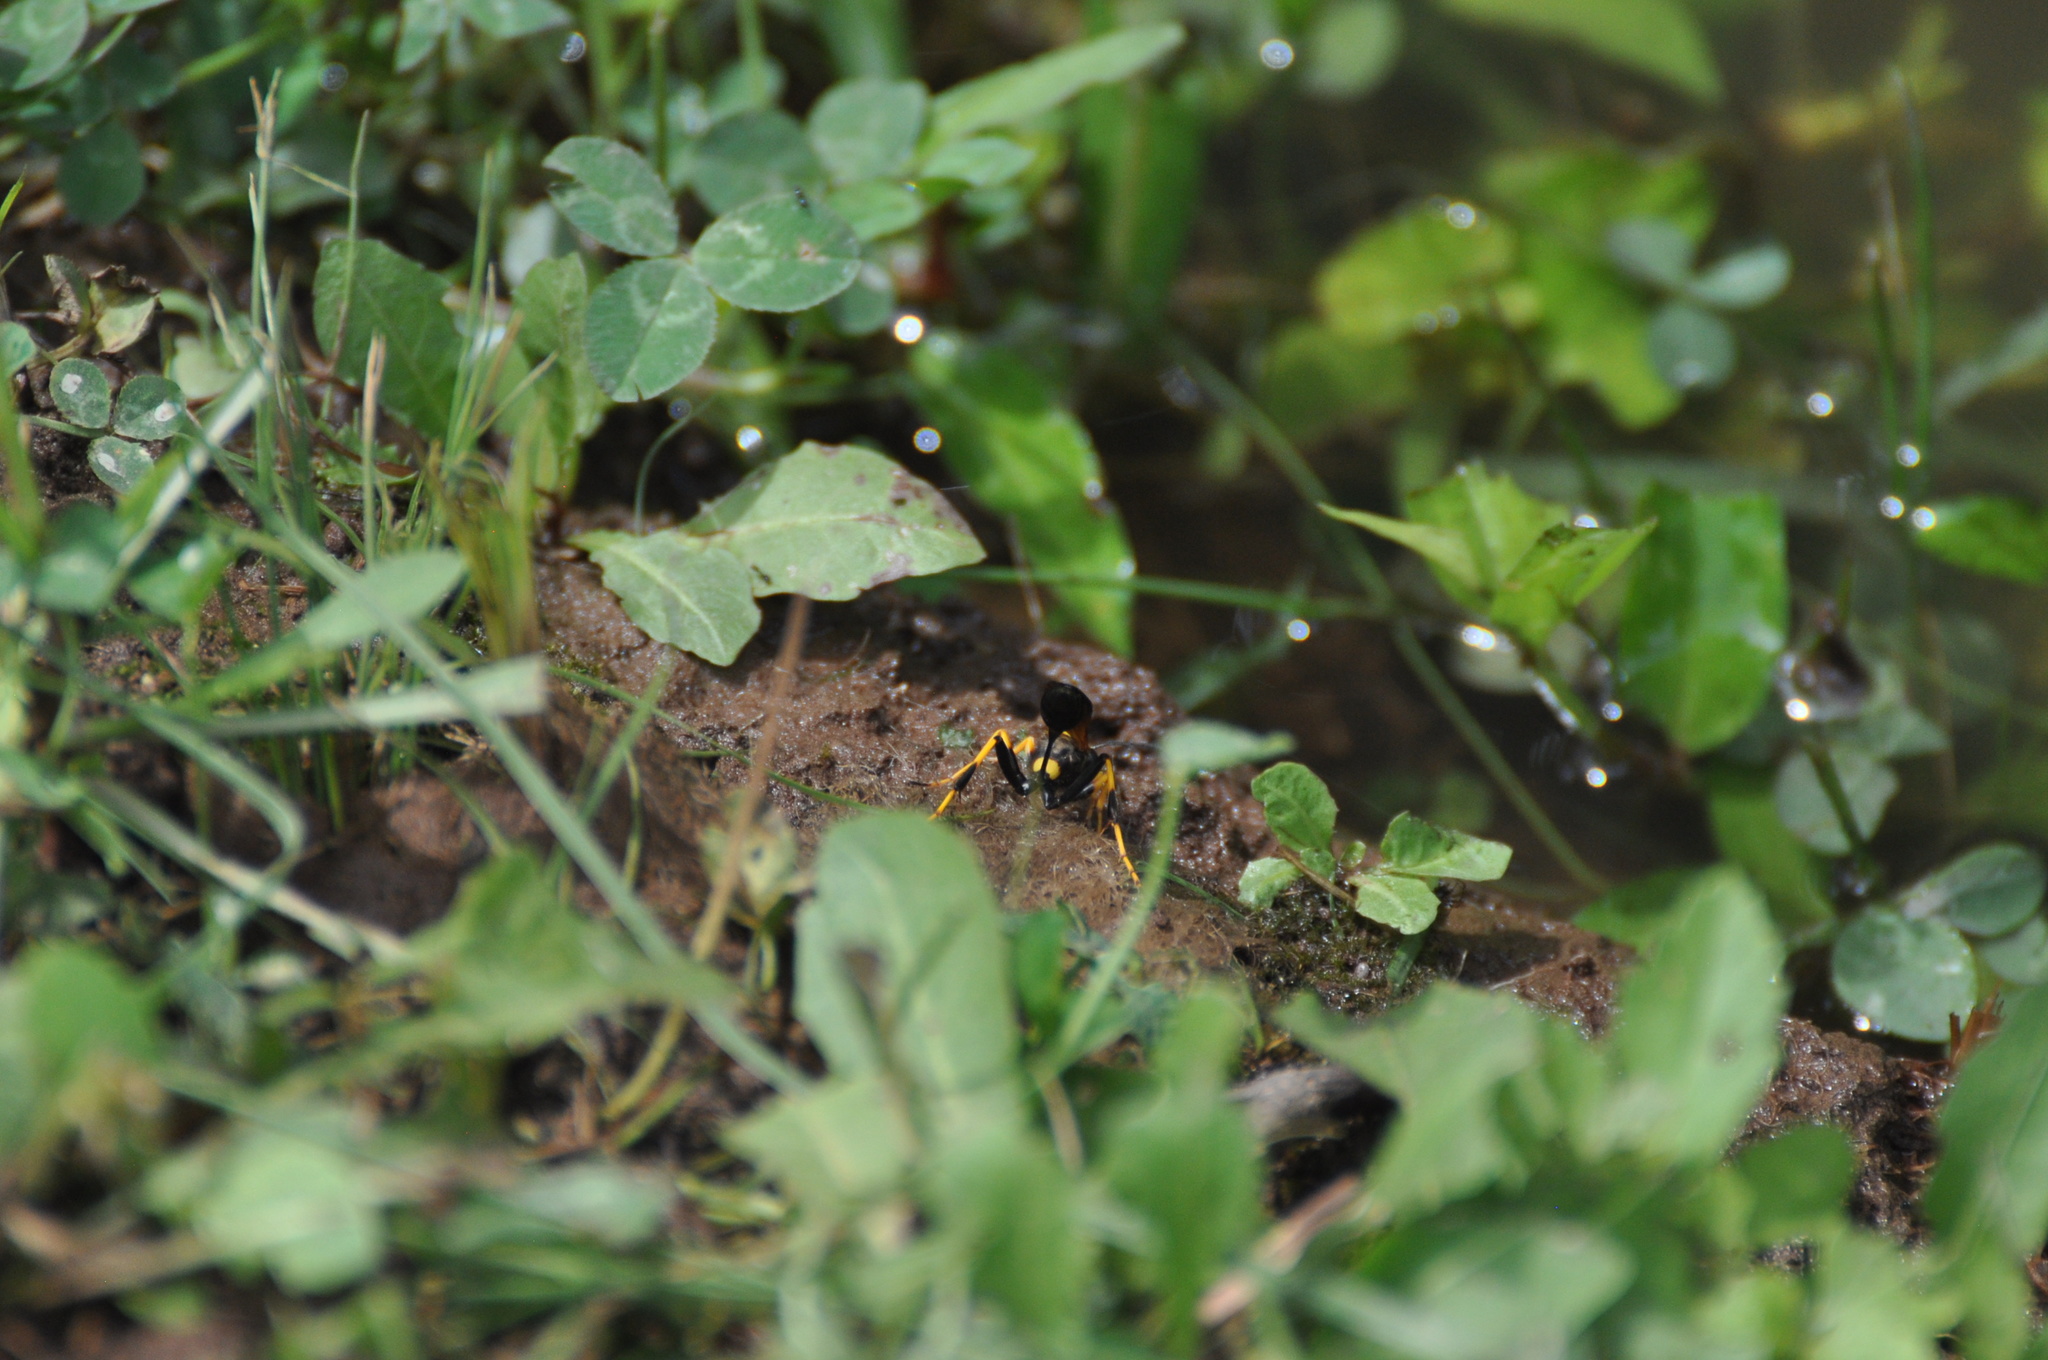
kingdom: Animalia
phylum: Arthropoda
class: Insecta
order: Hymenoptera
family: Sphecidae
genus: Sceliphron
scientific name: Sceliphron caementarium
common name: Mud dauber
